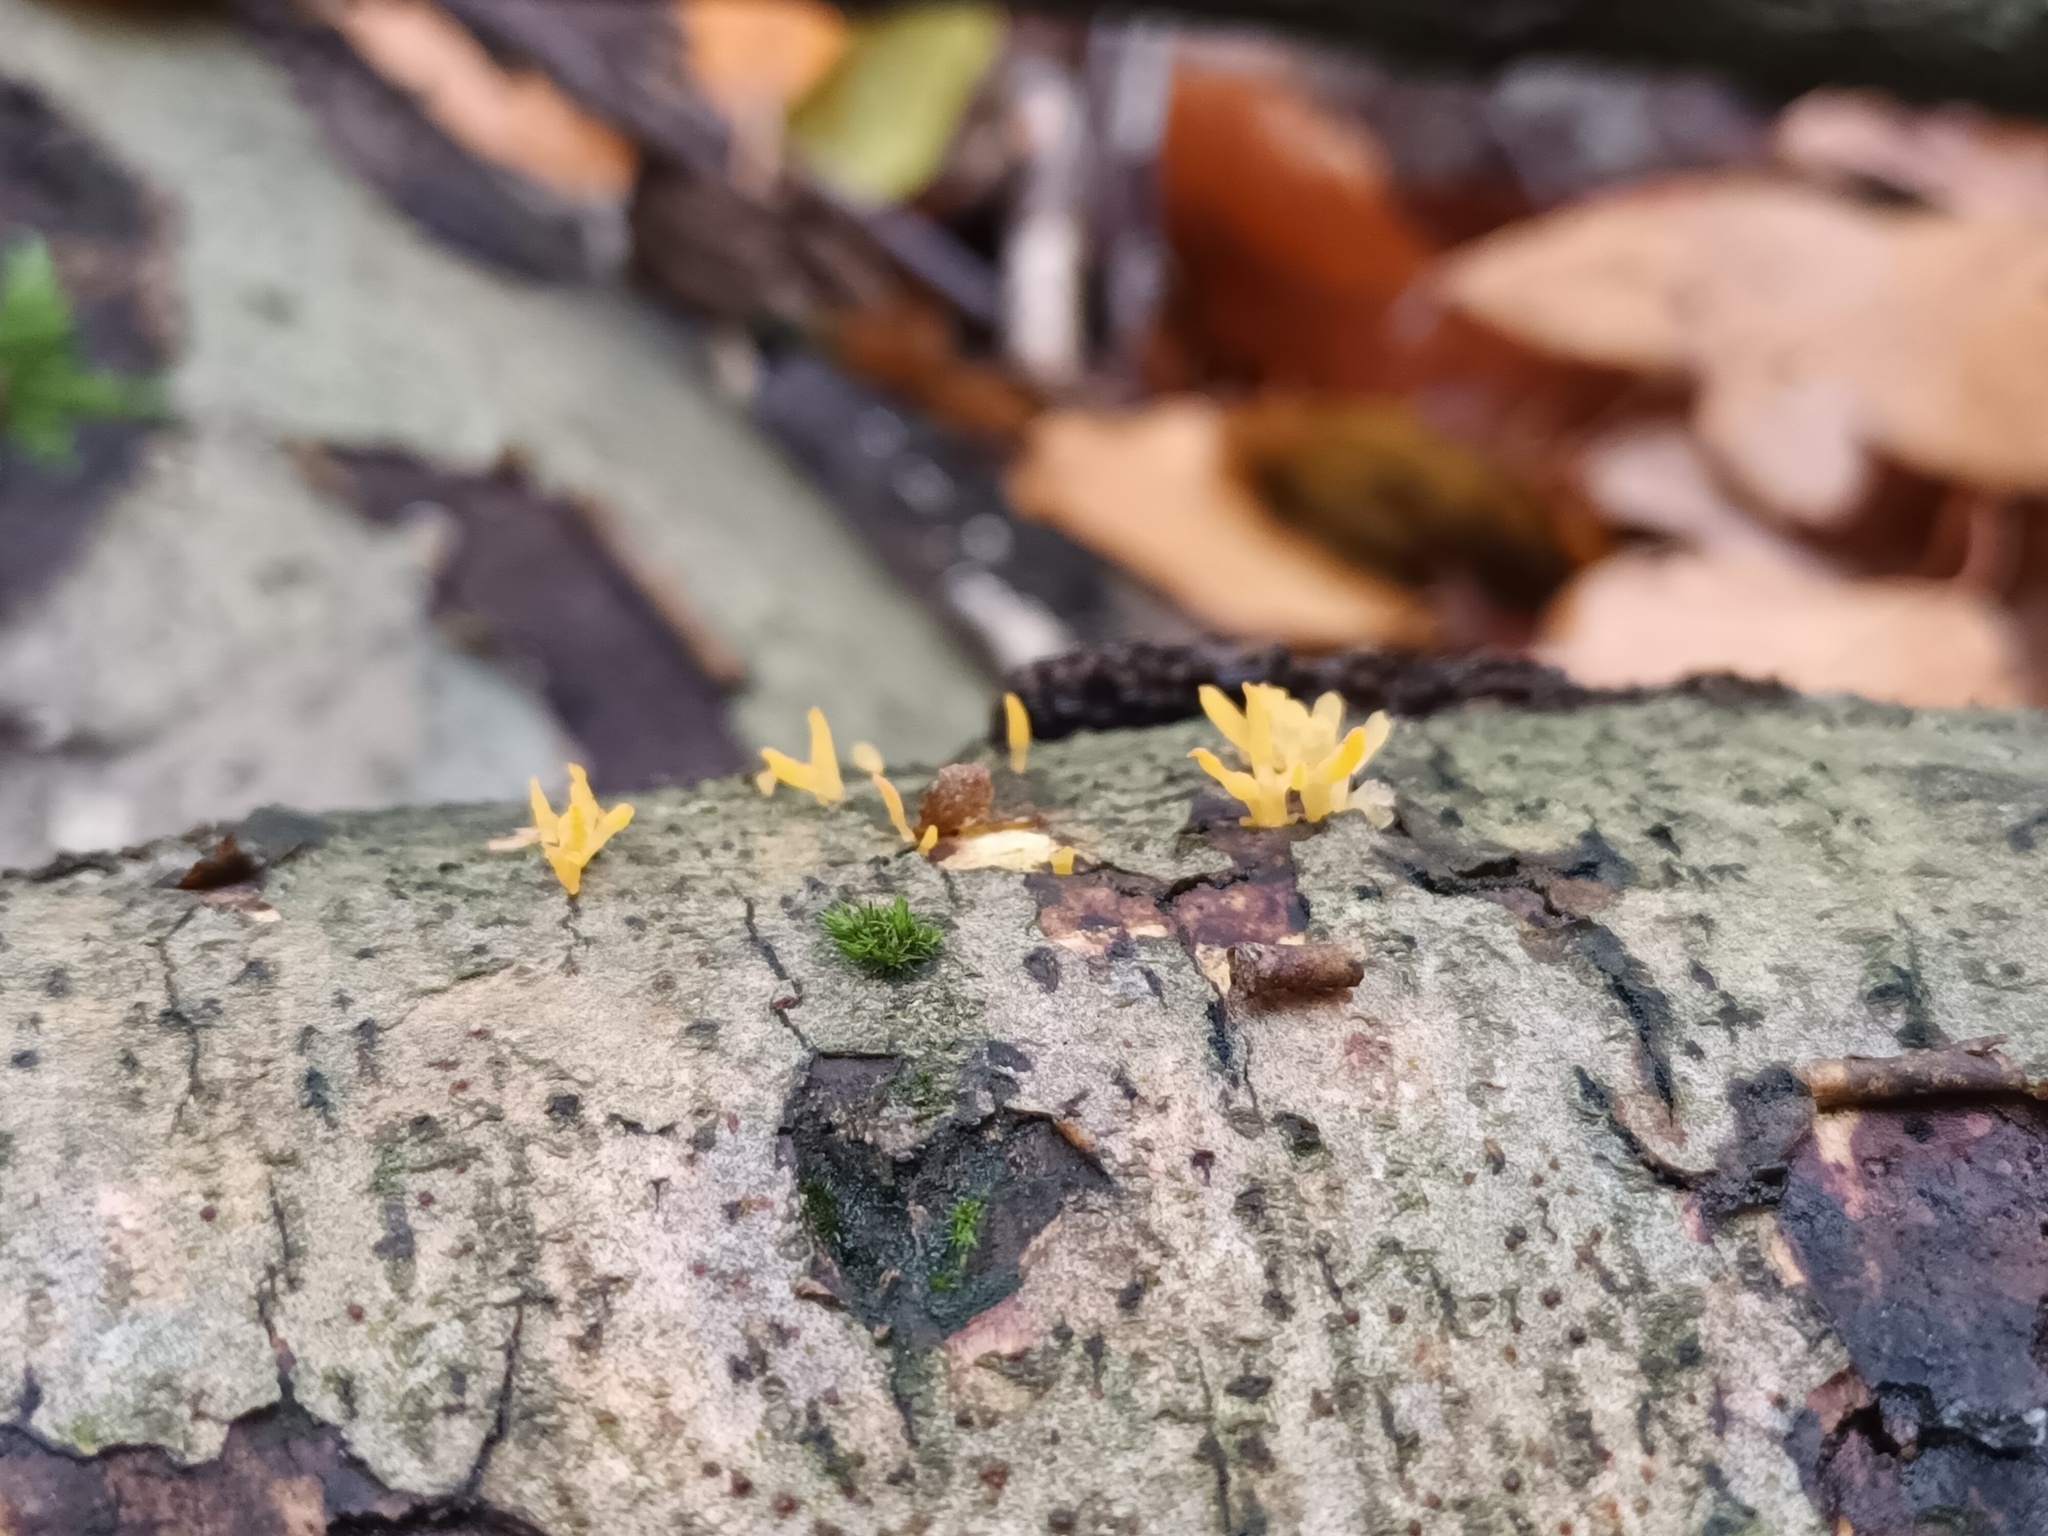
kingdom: Fungi
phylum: Basidiomycota
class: Dacrymycetes
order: Dacrymycetales
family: Dacrymycetaceae
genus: Calocera
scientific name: Calocera cornea
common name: Small stagshorn
